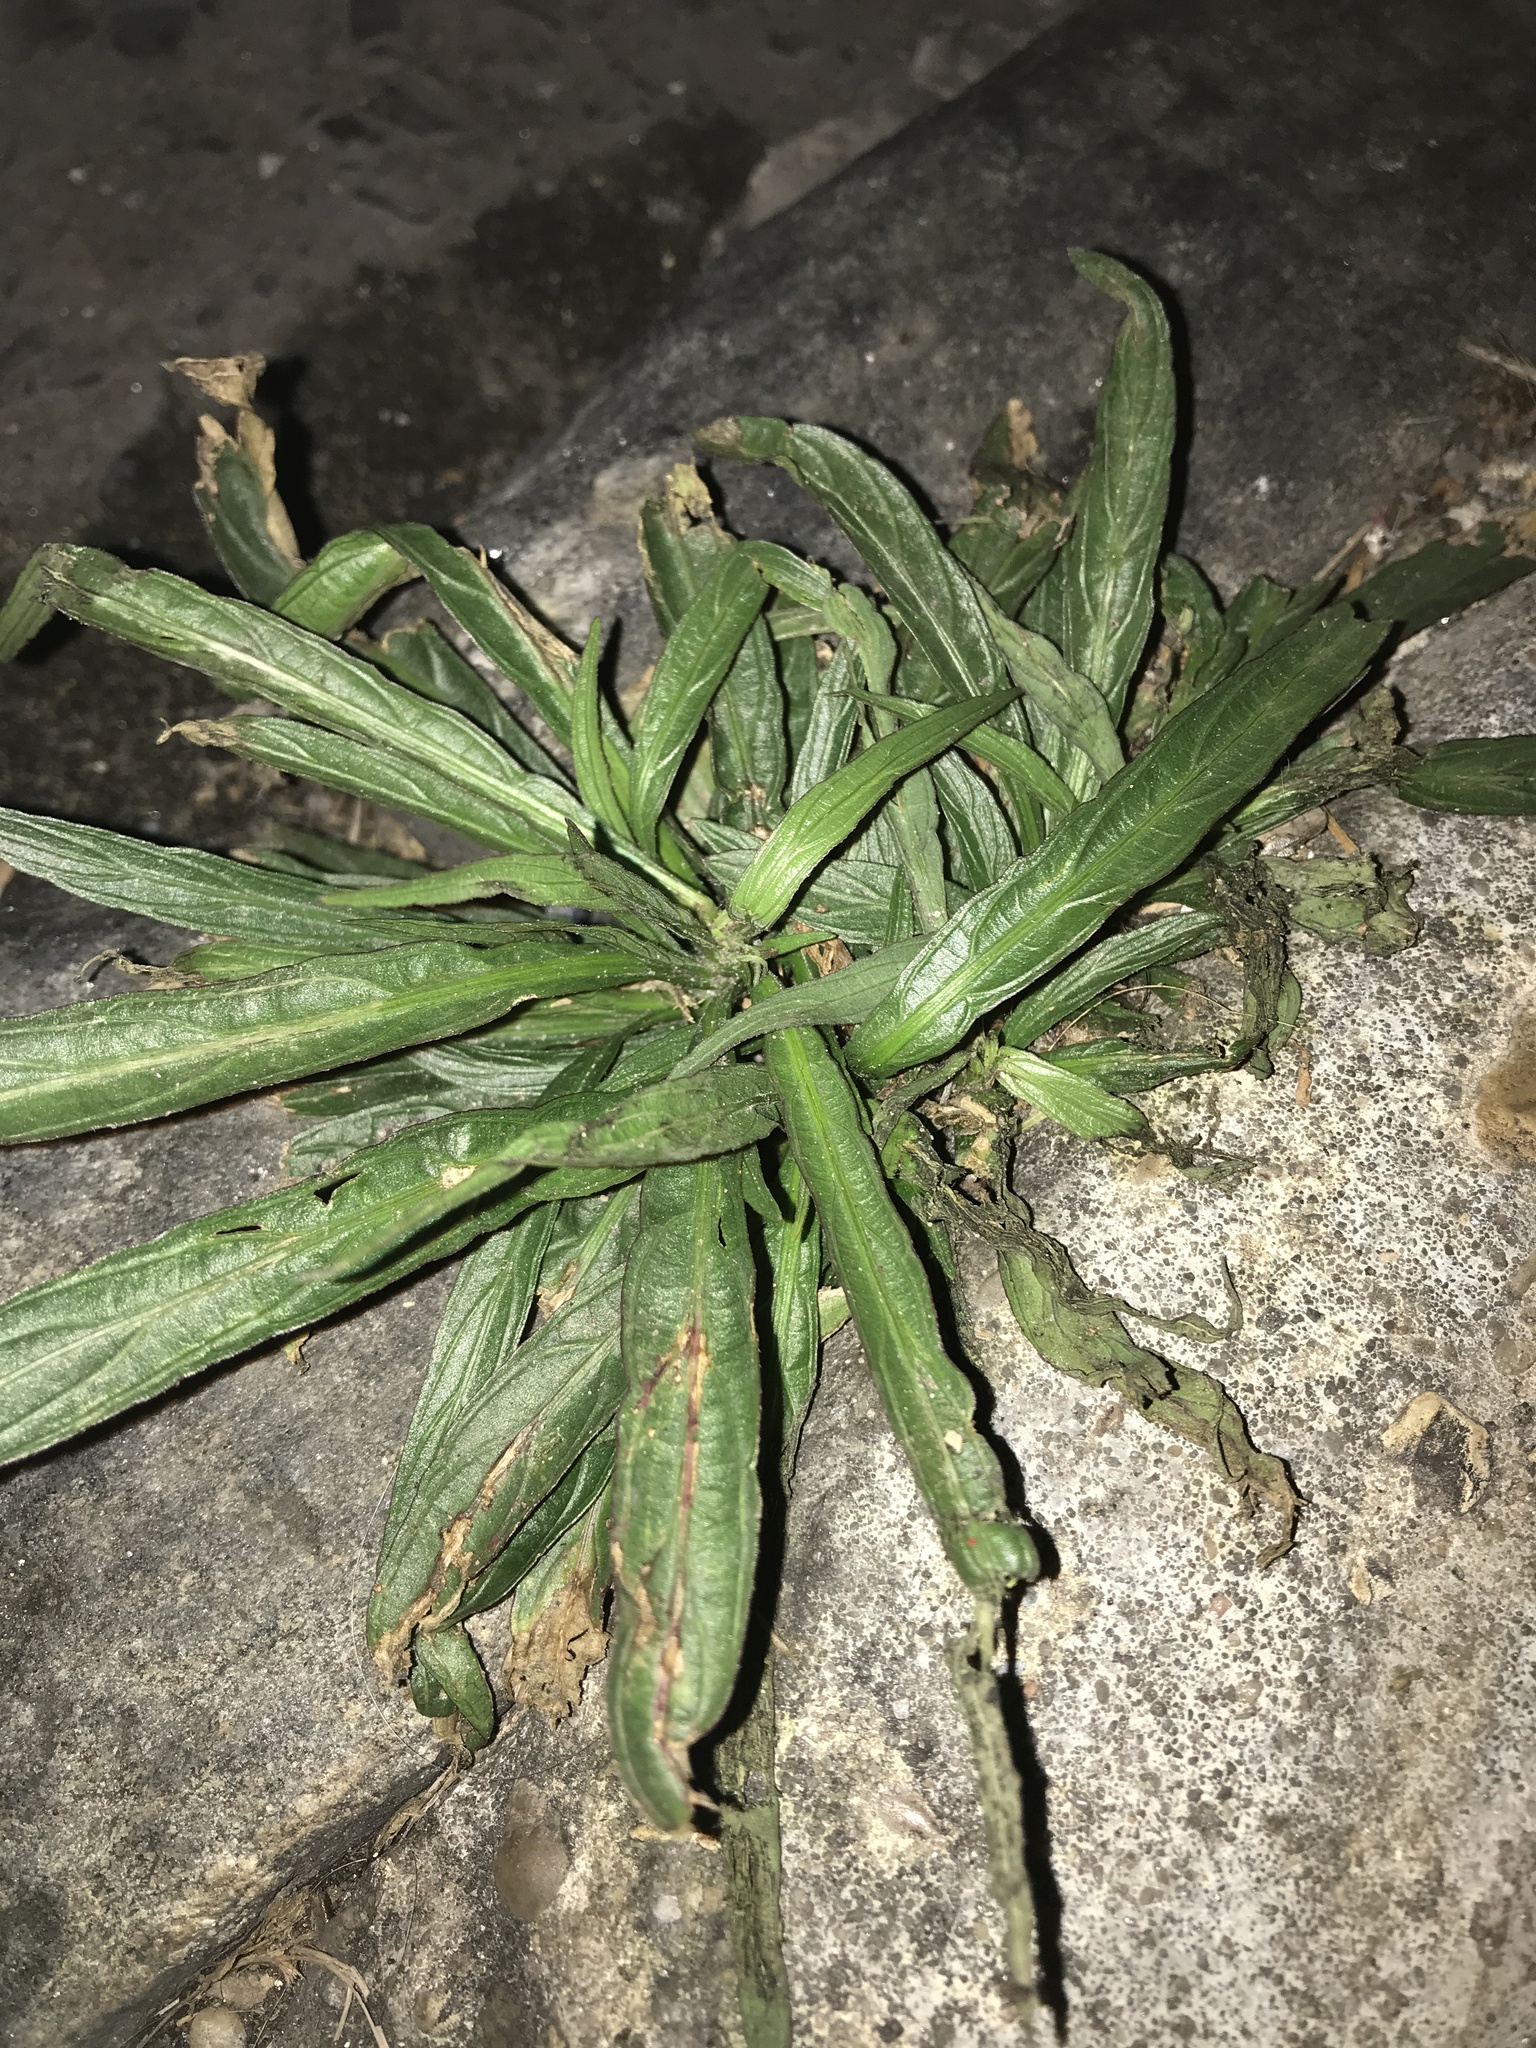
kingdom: Plantae
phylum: Tracheophyta
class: Magnoliopsida
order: Lamiales
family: Acanthaceae
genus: Ruellia
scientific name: Ruellia simplex
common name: Softseed wild petunia
